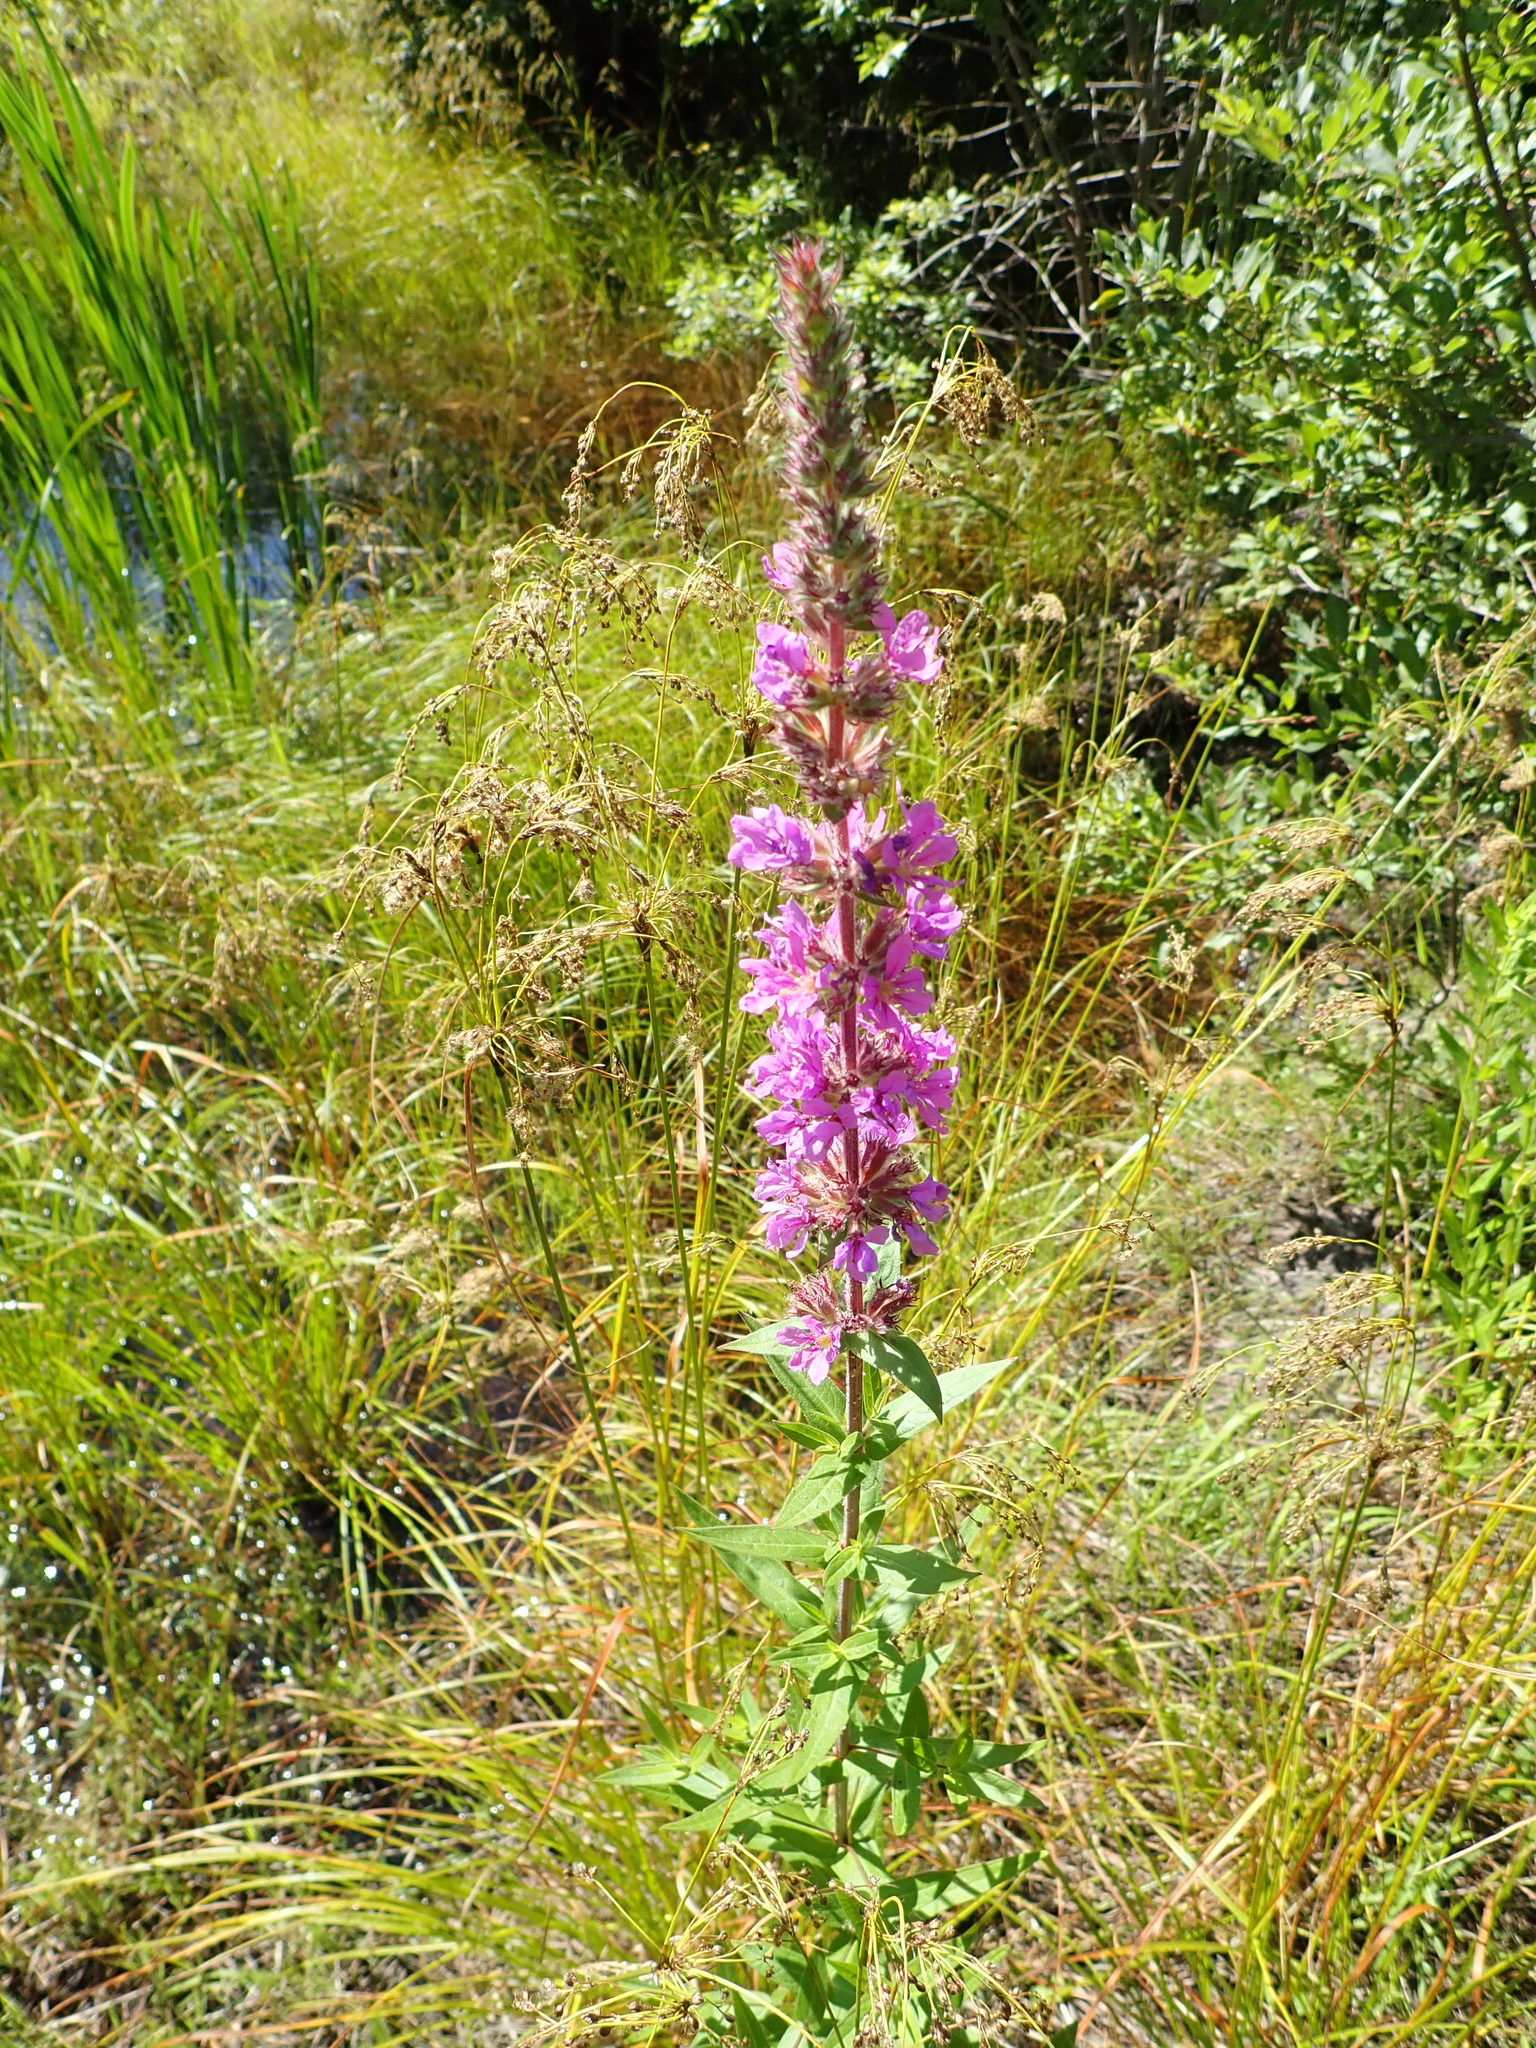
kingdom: Plantae
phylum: Tracheophyta
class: Magnoliopsida
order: Myrtales
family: Lythraceae
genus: Lythrum
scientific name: Lythrum salicaria
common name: Purple loosestrife
